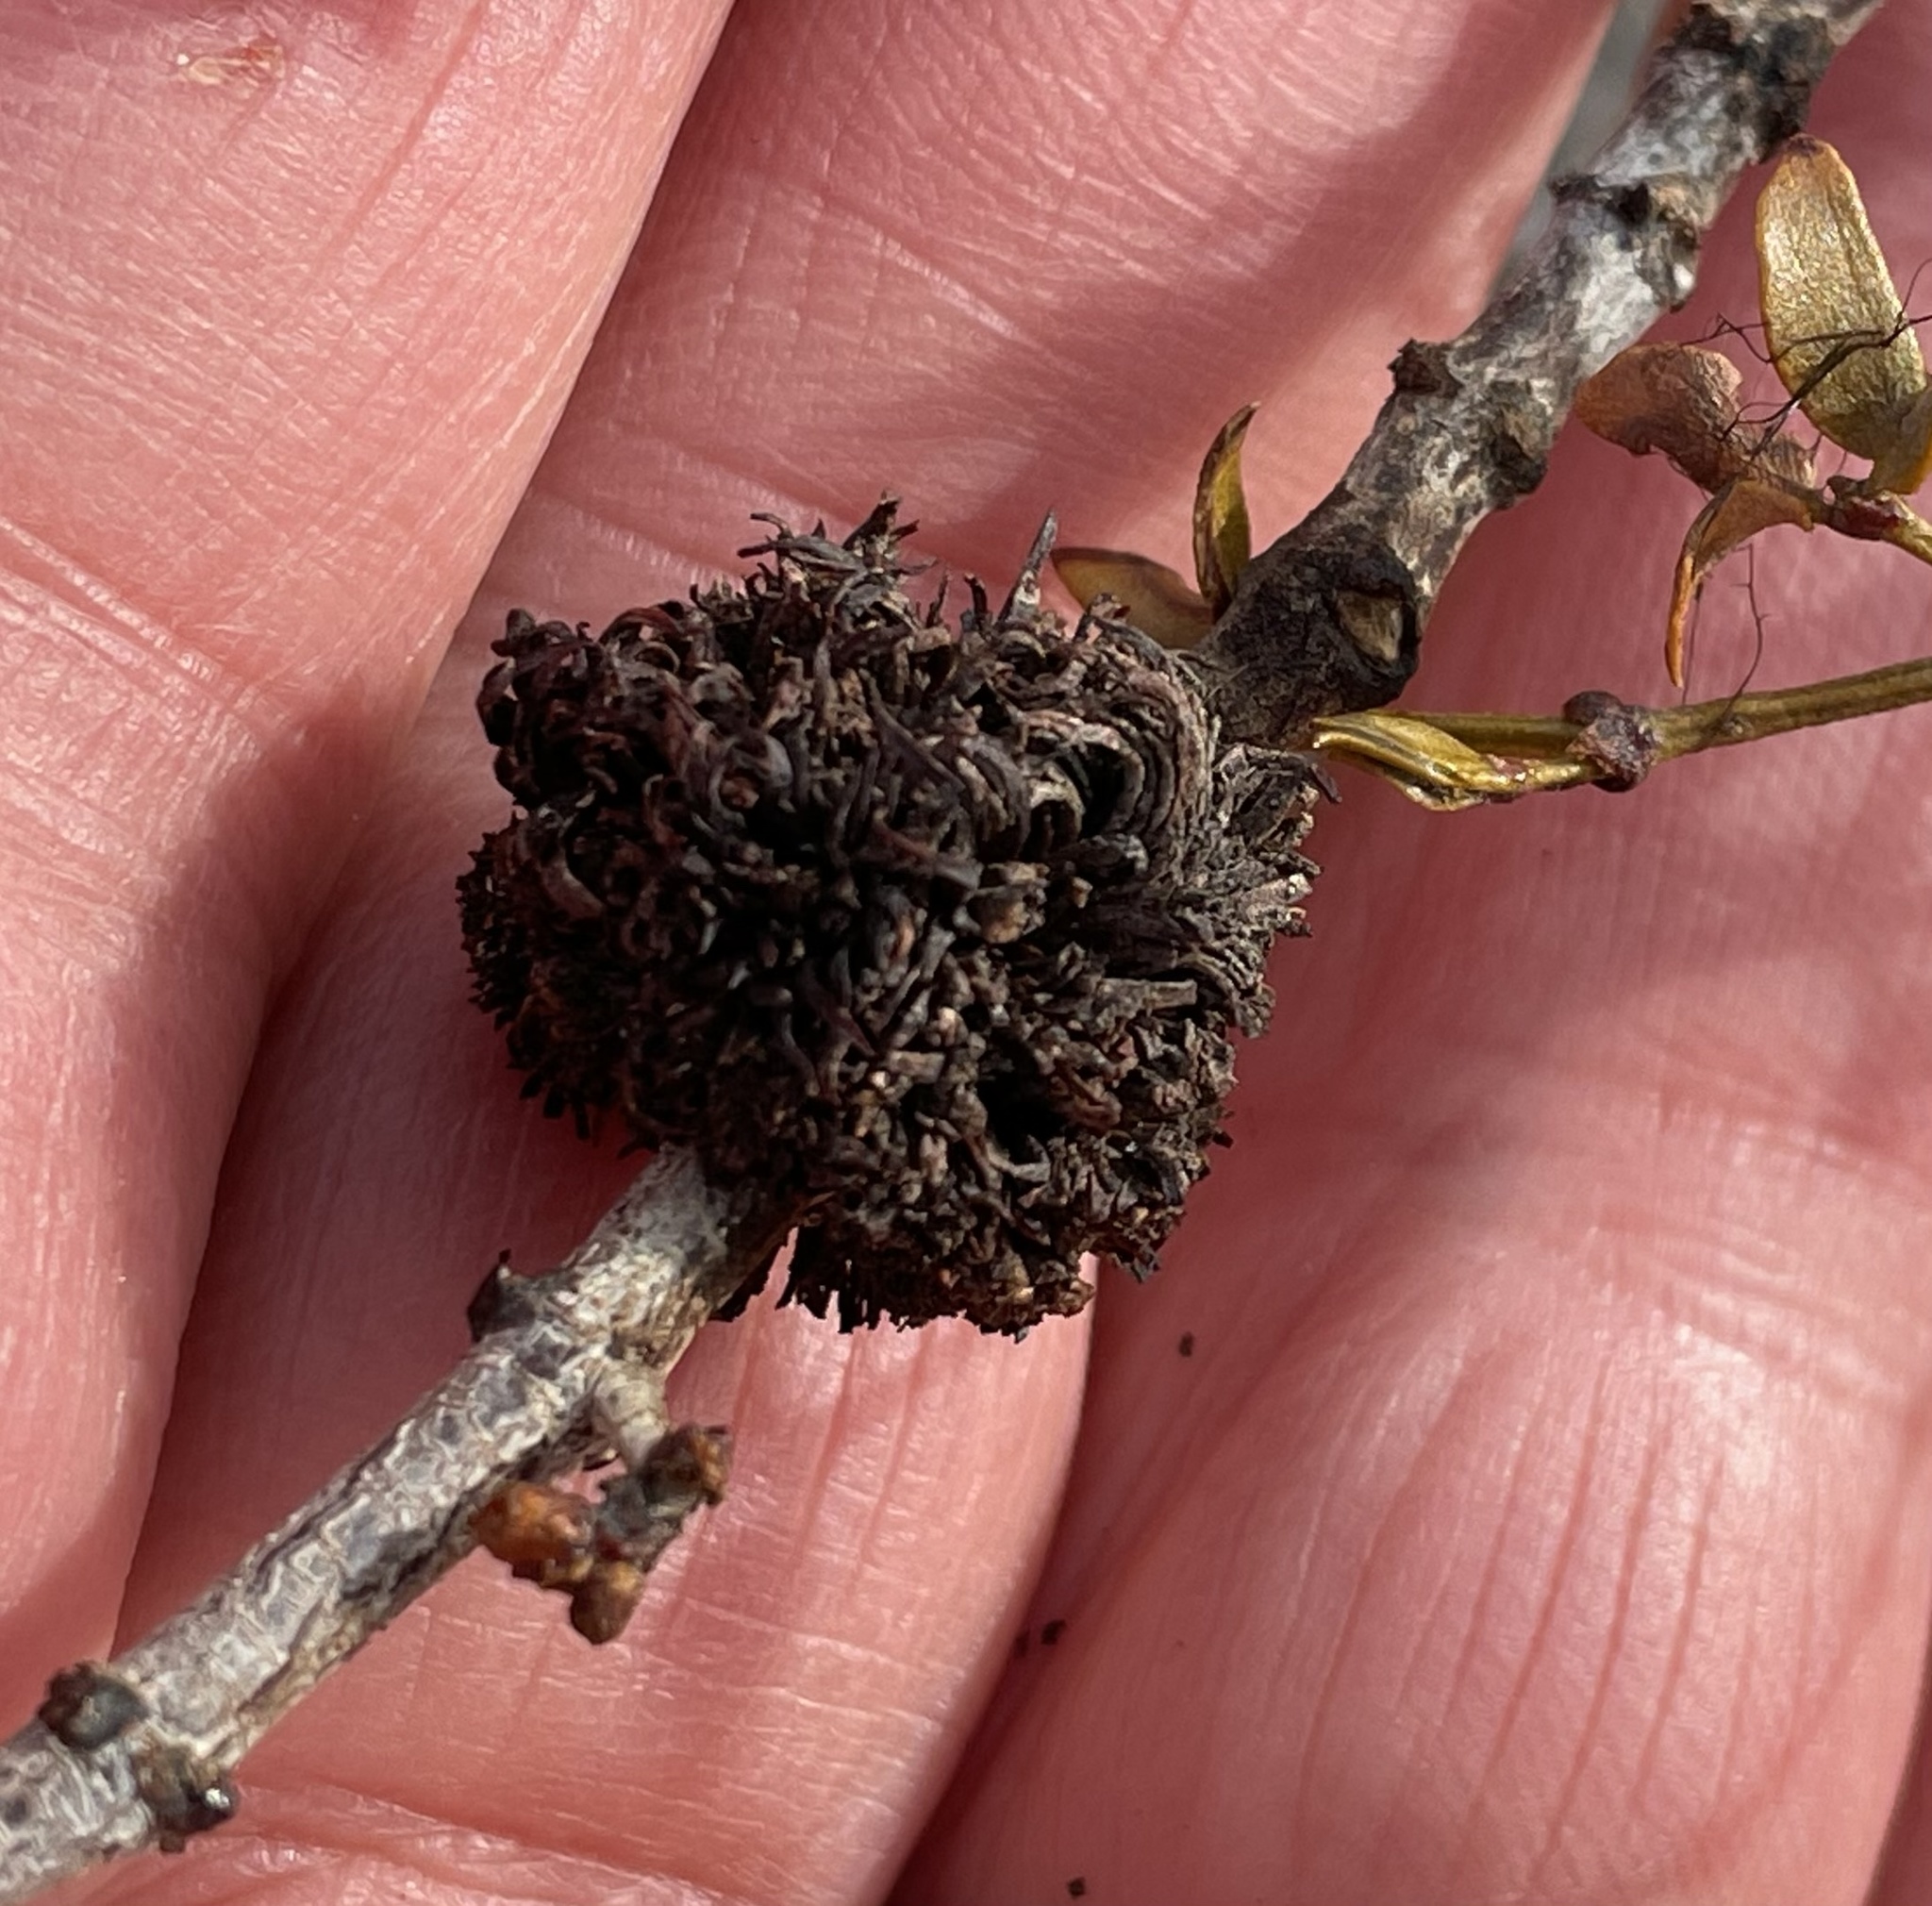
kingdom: Animalia
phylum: Arthropoda
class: Insecta
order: Diptera
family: Cecidomyiidae
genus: Asphondylia
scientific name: Asphondylia auripila
